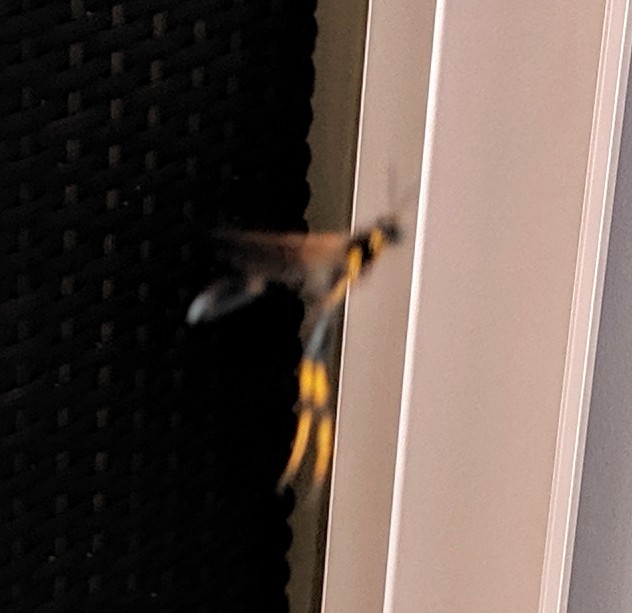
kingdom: Animalia
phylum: Arthropoda
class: Insecta
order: Hymenoptera
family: Sphecidae
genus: Sceliphron
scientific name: Sceliphron caementarium
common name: Mud dauber
